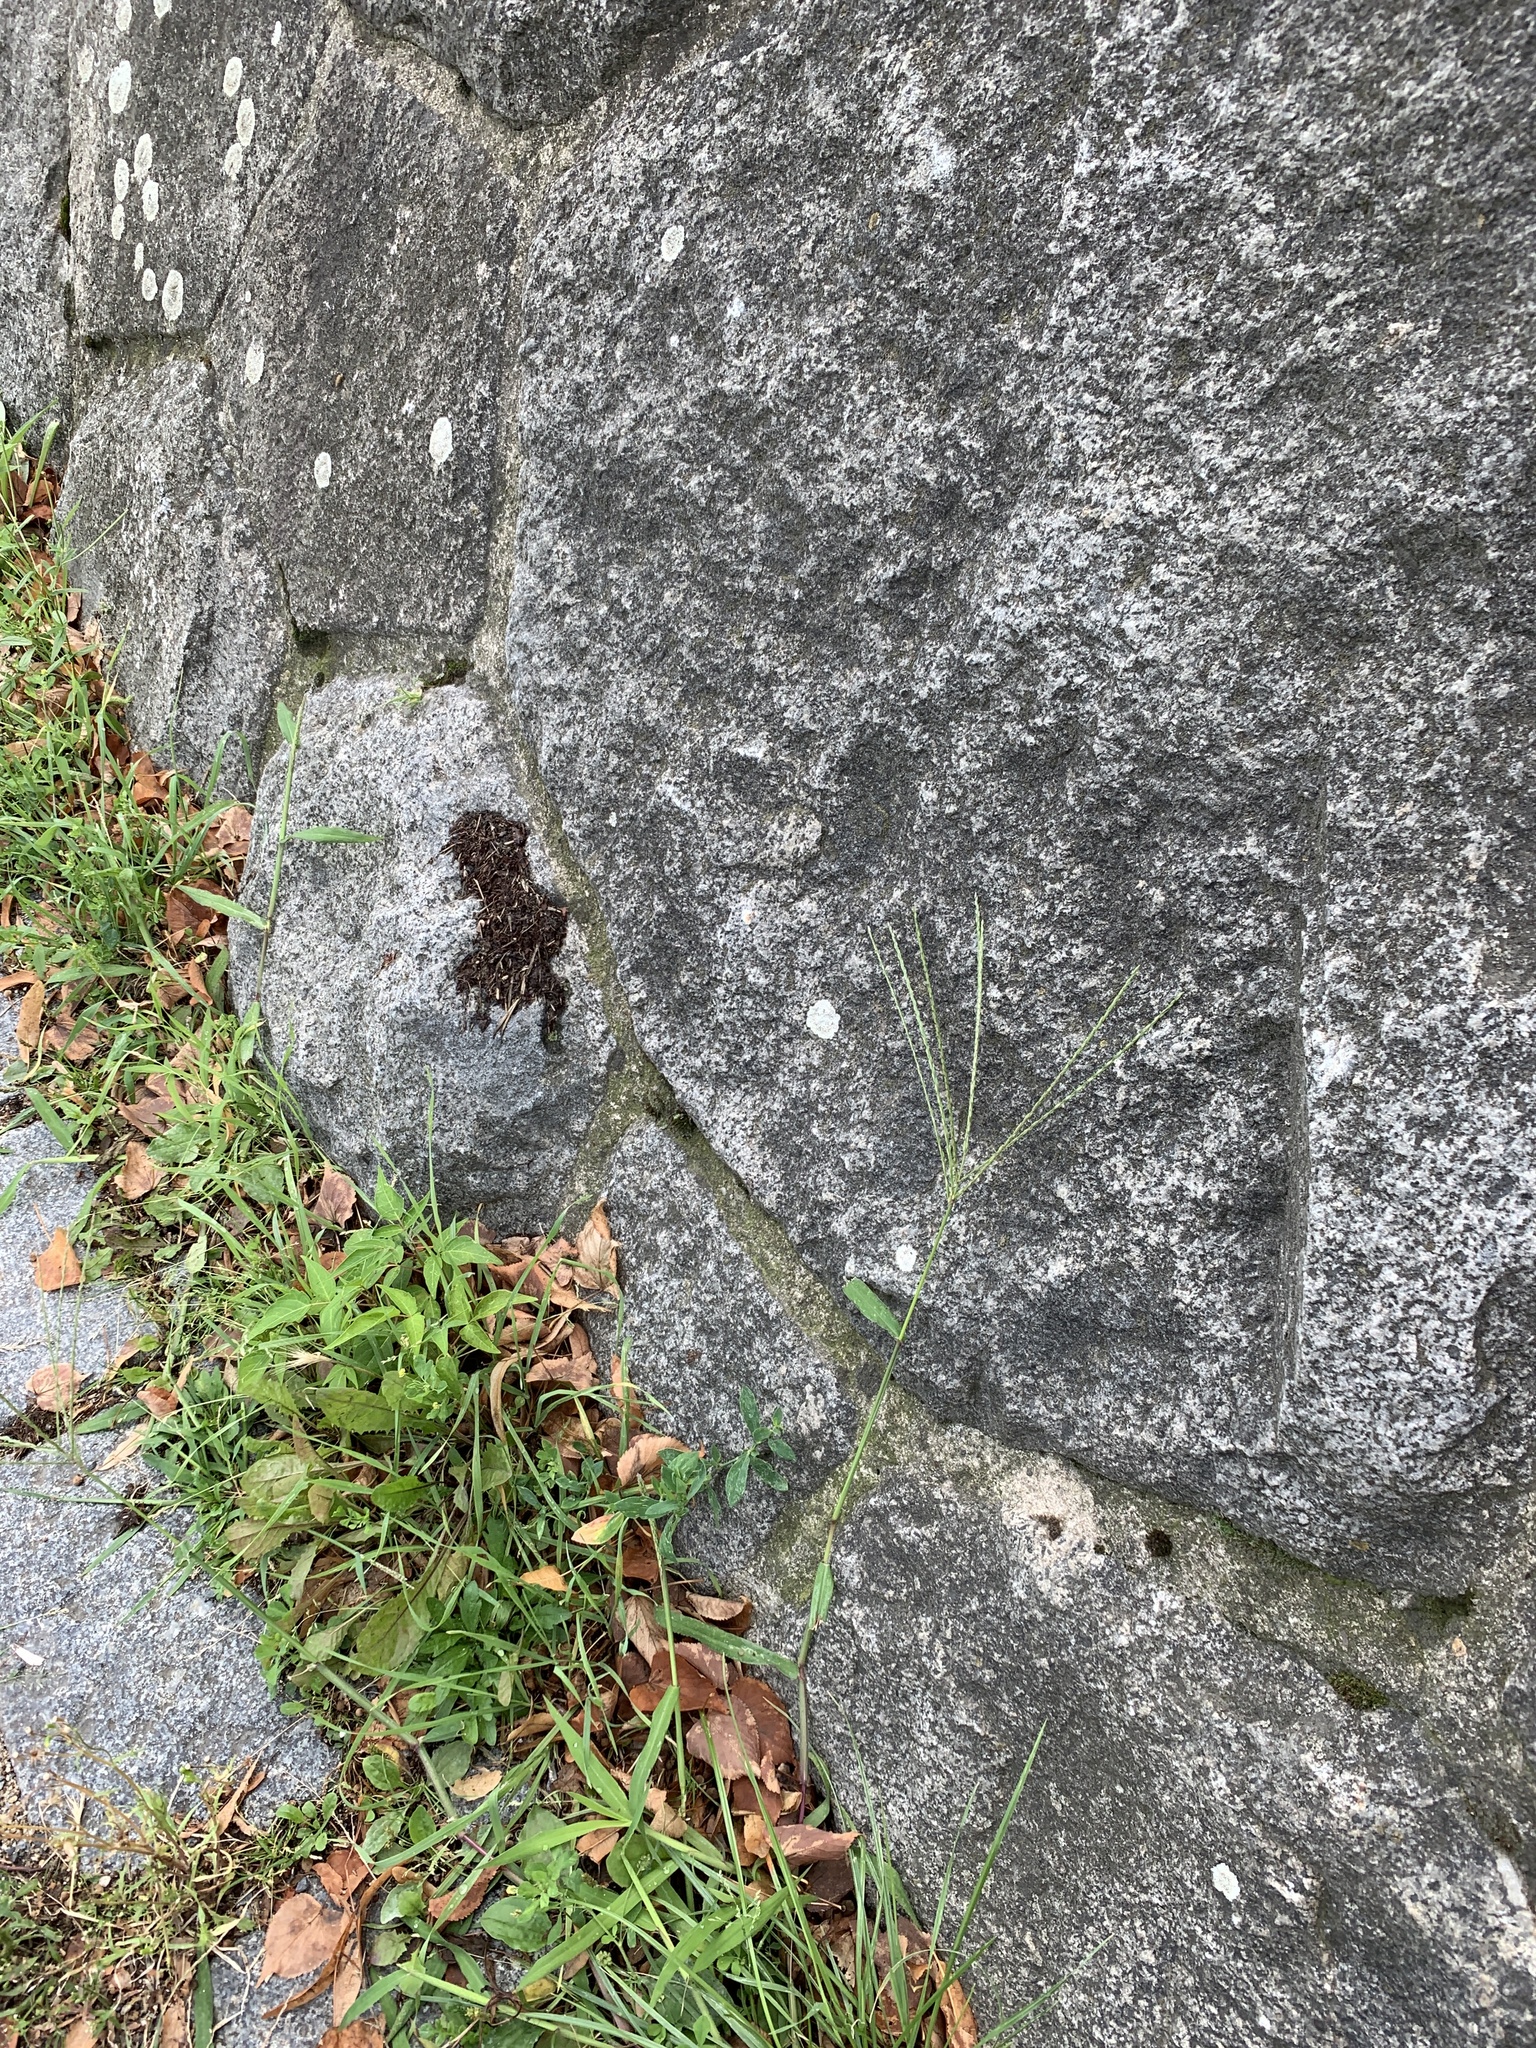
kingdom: Plantae
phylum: Tracheophyta
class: Liliopsida
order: Poales
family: Poaceae
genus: Digitaria
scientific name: Digitaria sanguinalis
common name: Hairy crabgrass
